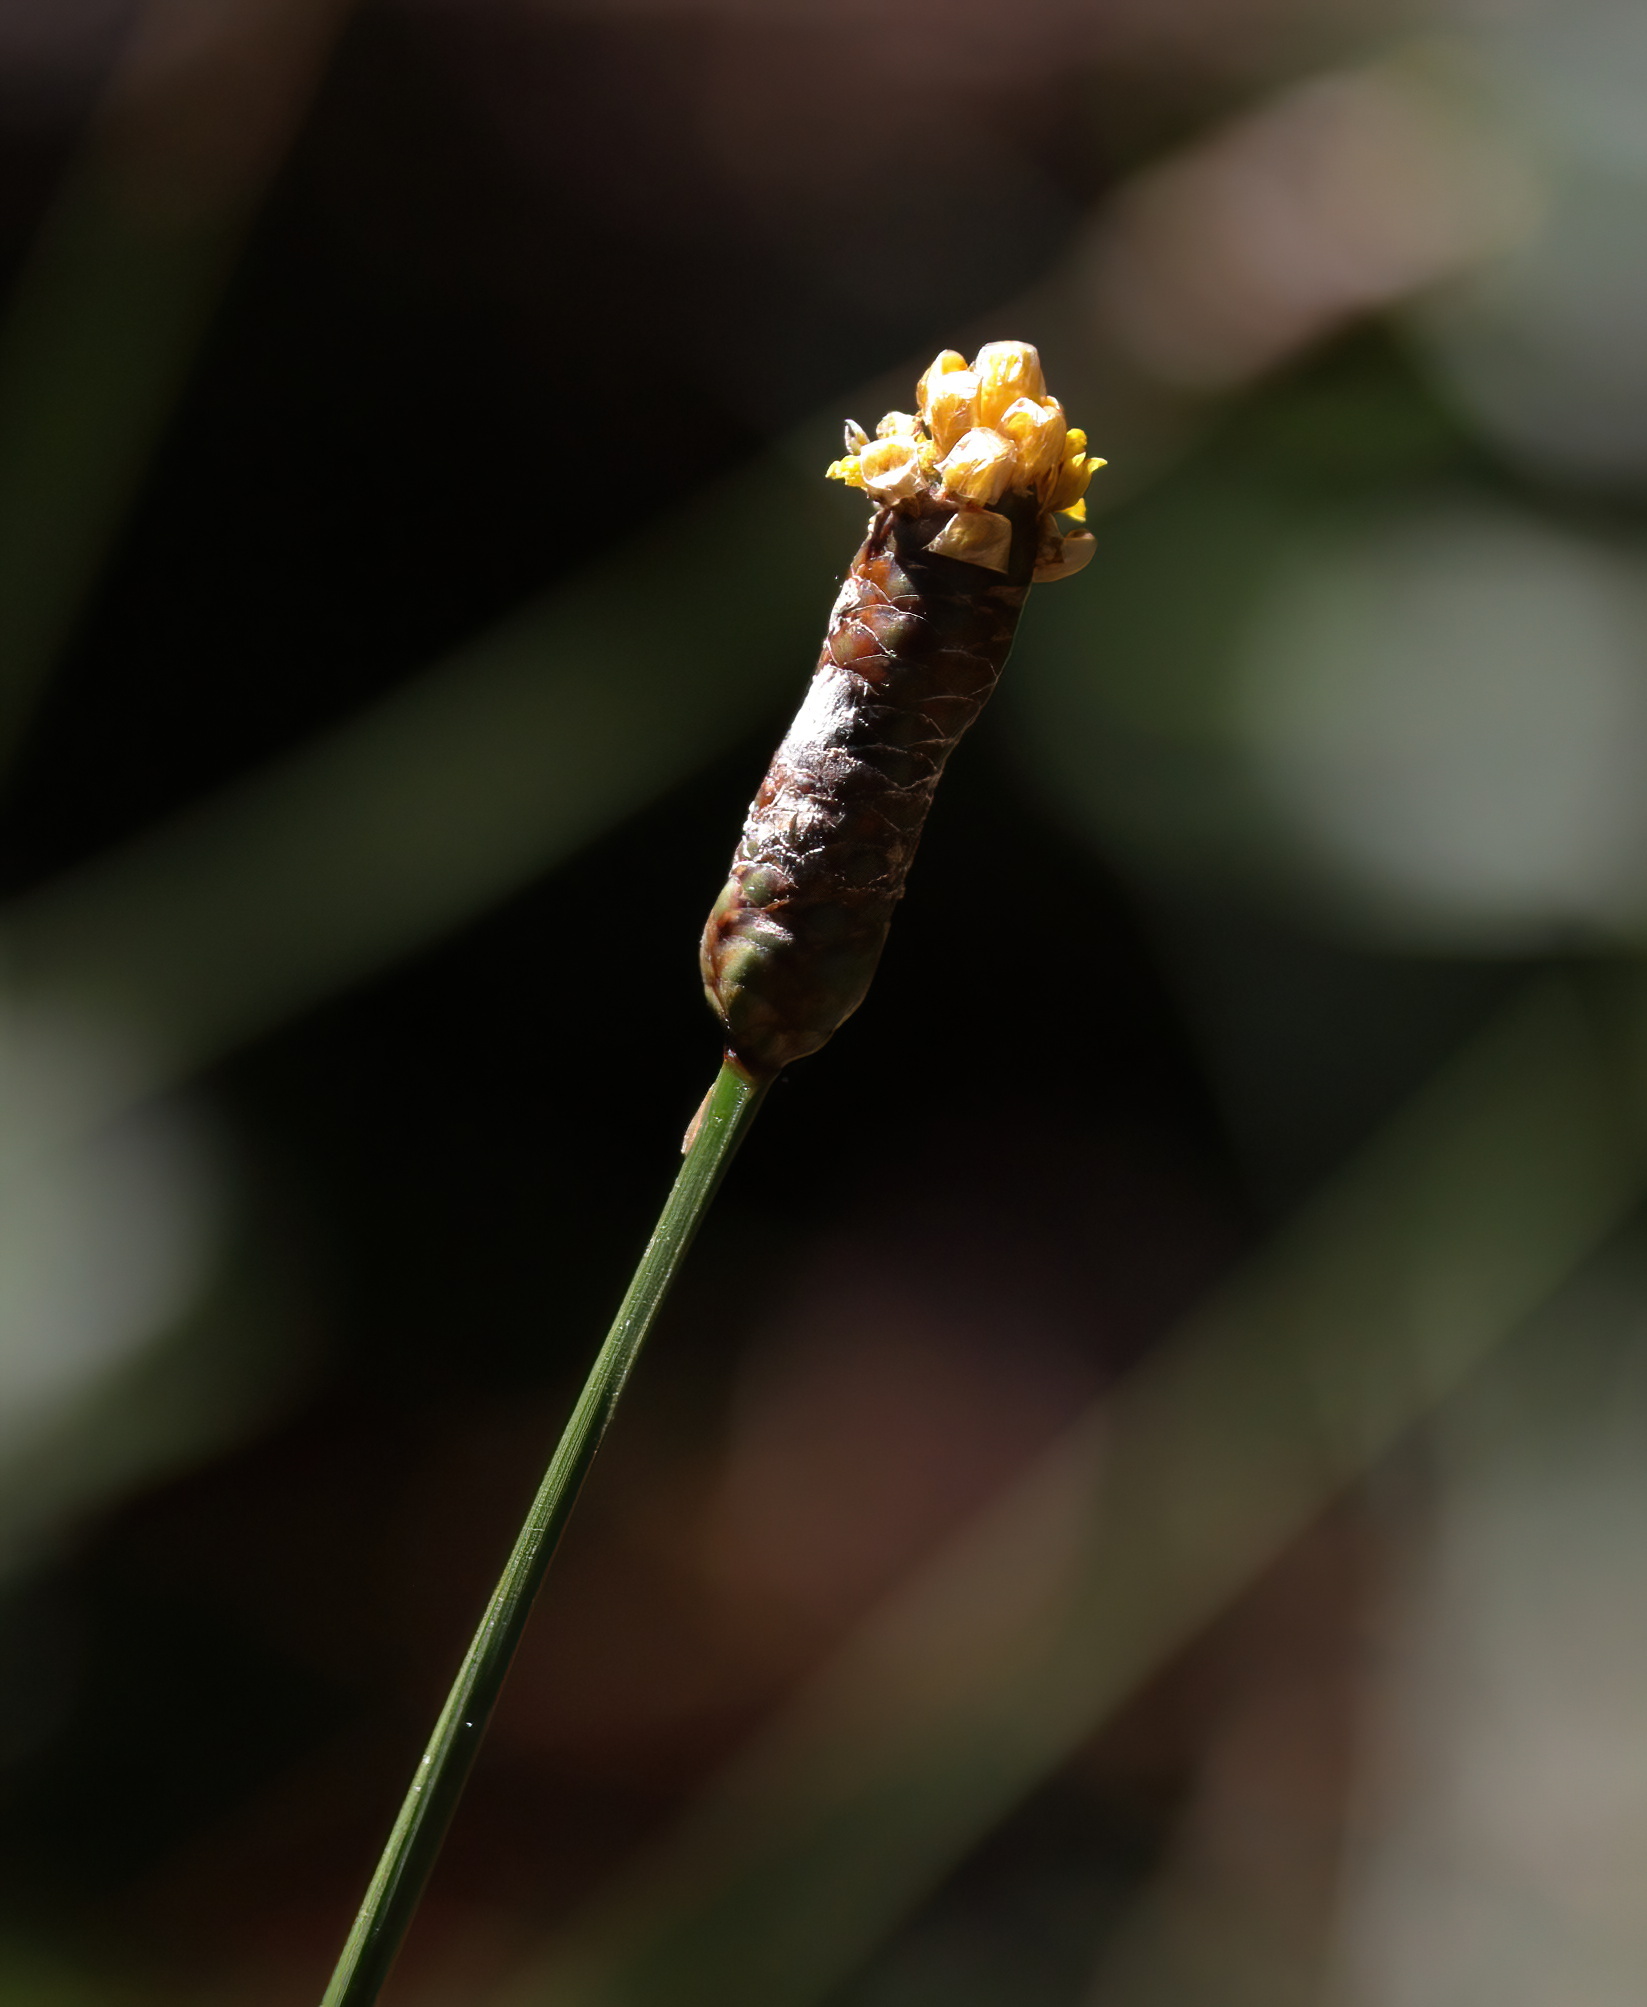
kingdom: Plantae
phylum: Tracheophyta
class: Liliopsida
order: Poales
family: Xyridaceae
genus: Xyris
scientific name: Xyris platylepis
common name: Tall yelloweyed grass
